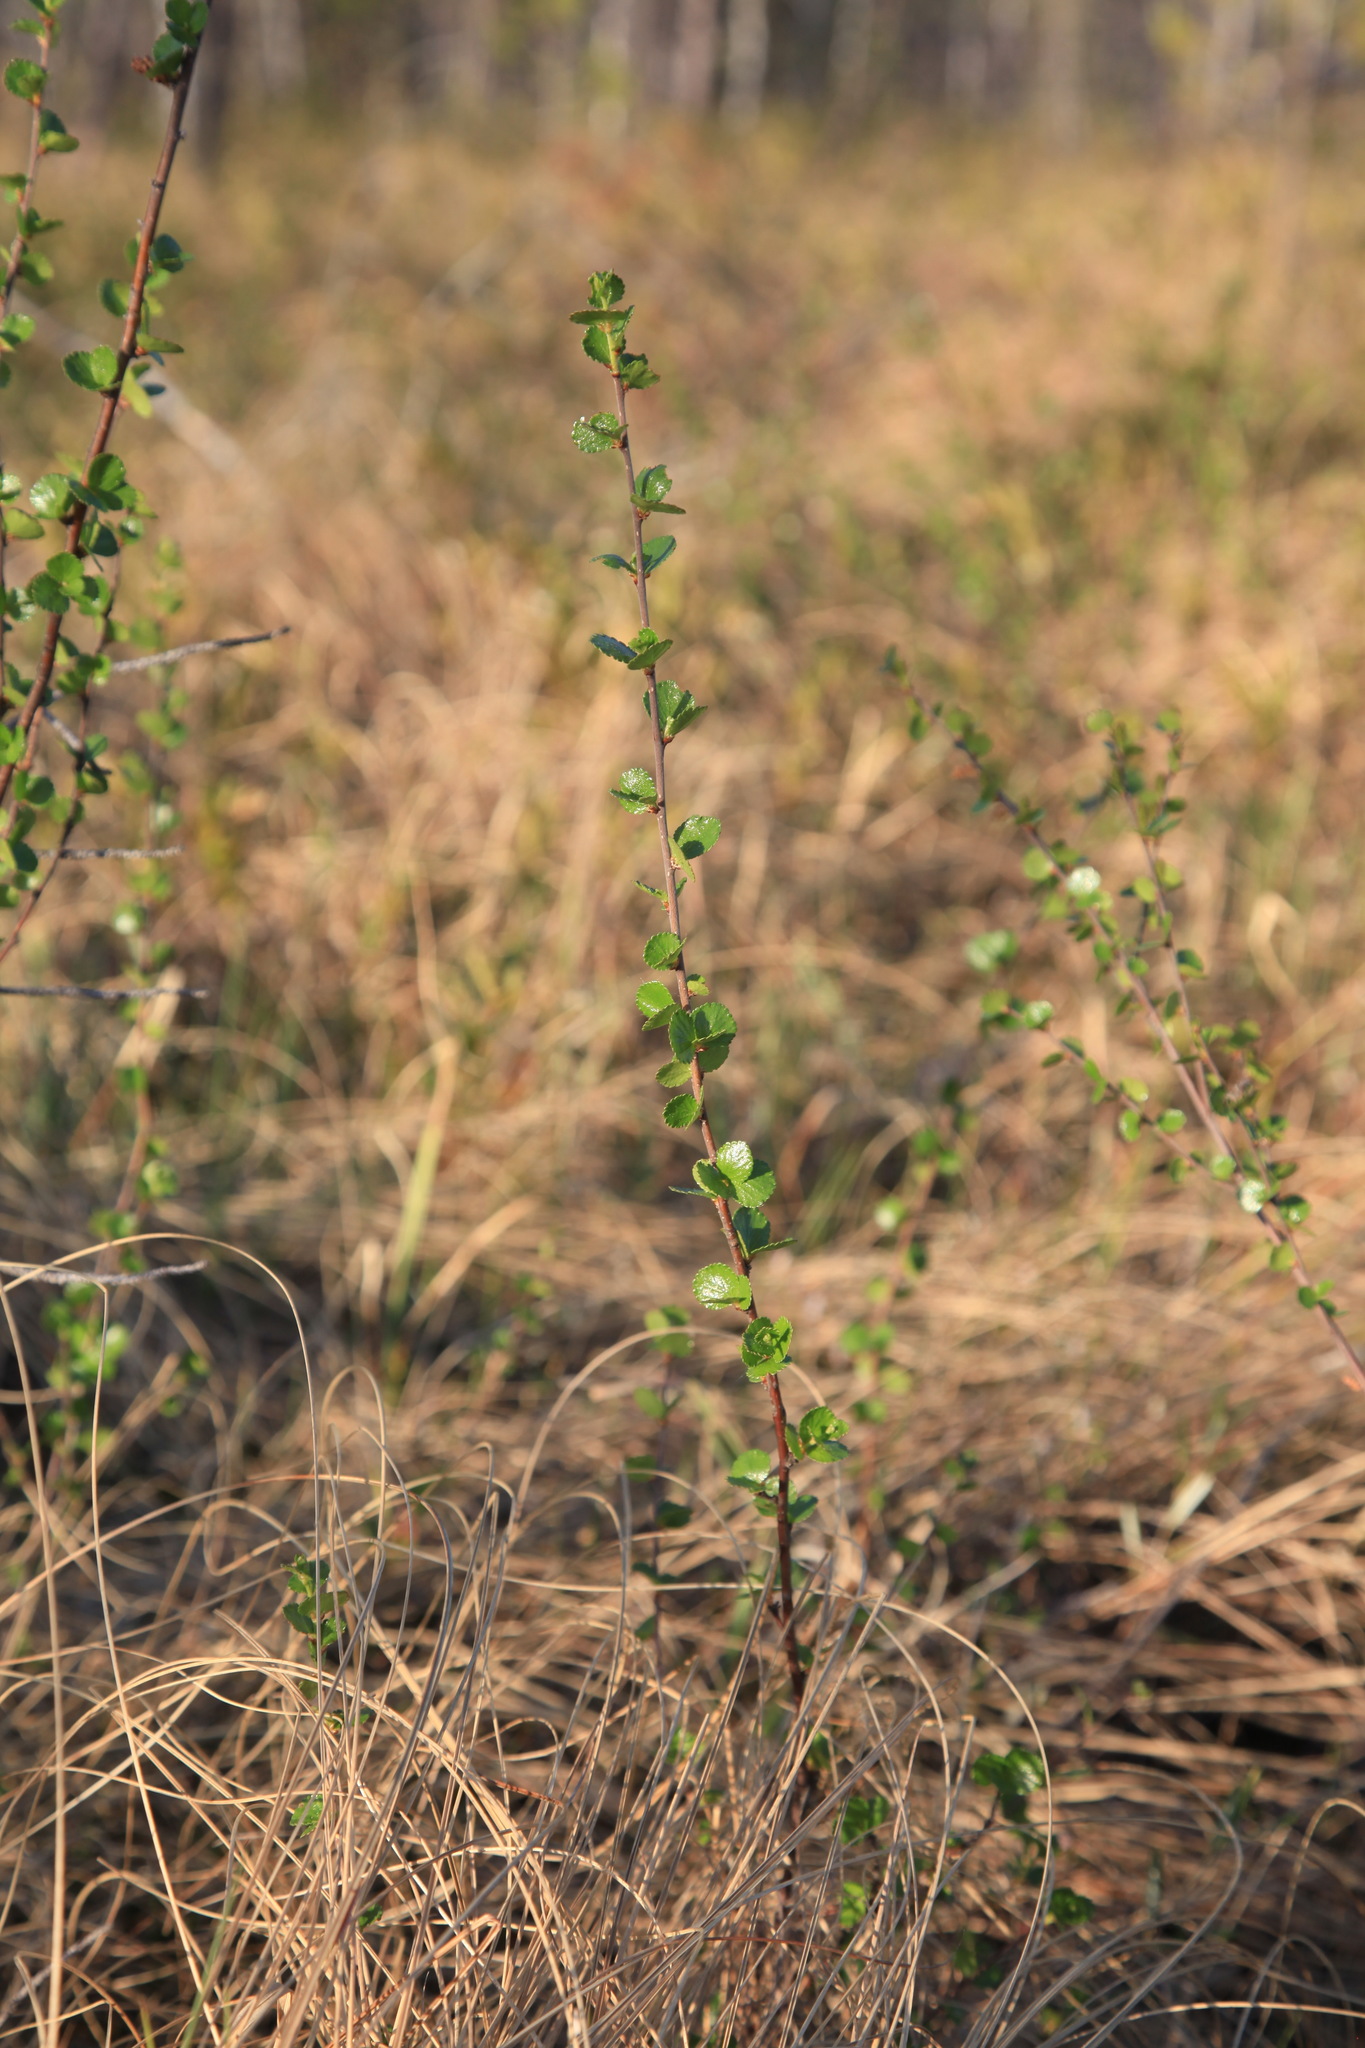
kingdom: Plantae
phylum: Tracheophyta
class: Magnoliopsida
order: Fagales
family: Betulaceae
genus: Betula
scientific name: Betula nana
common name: Arctic dwarf birch
